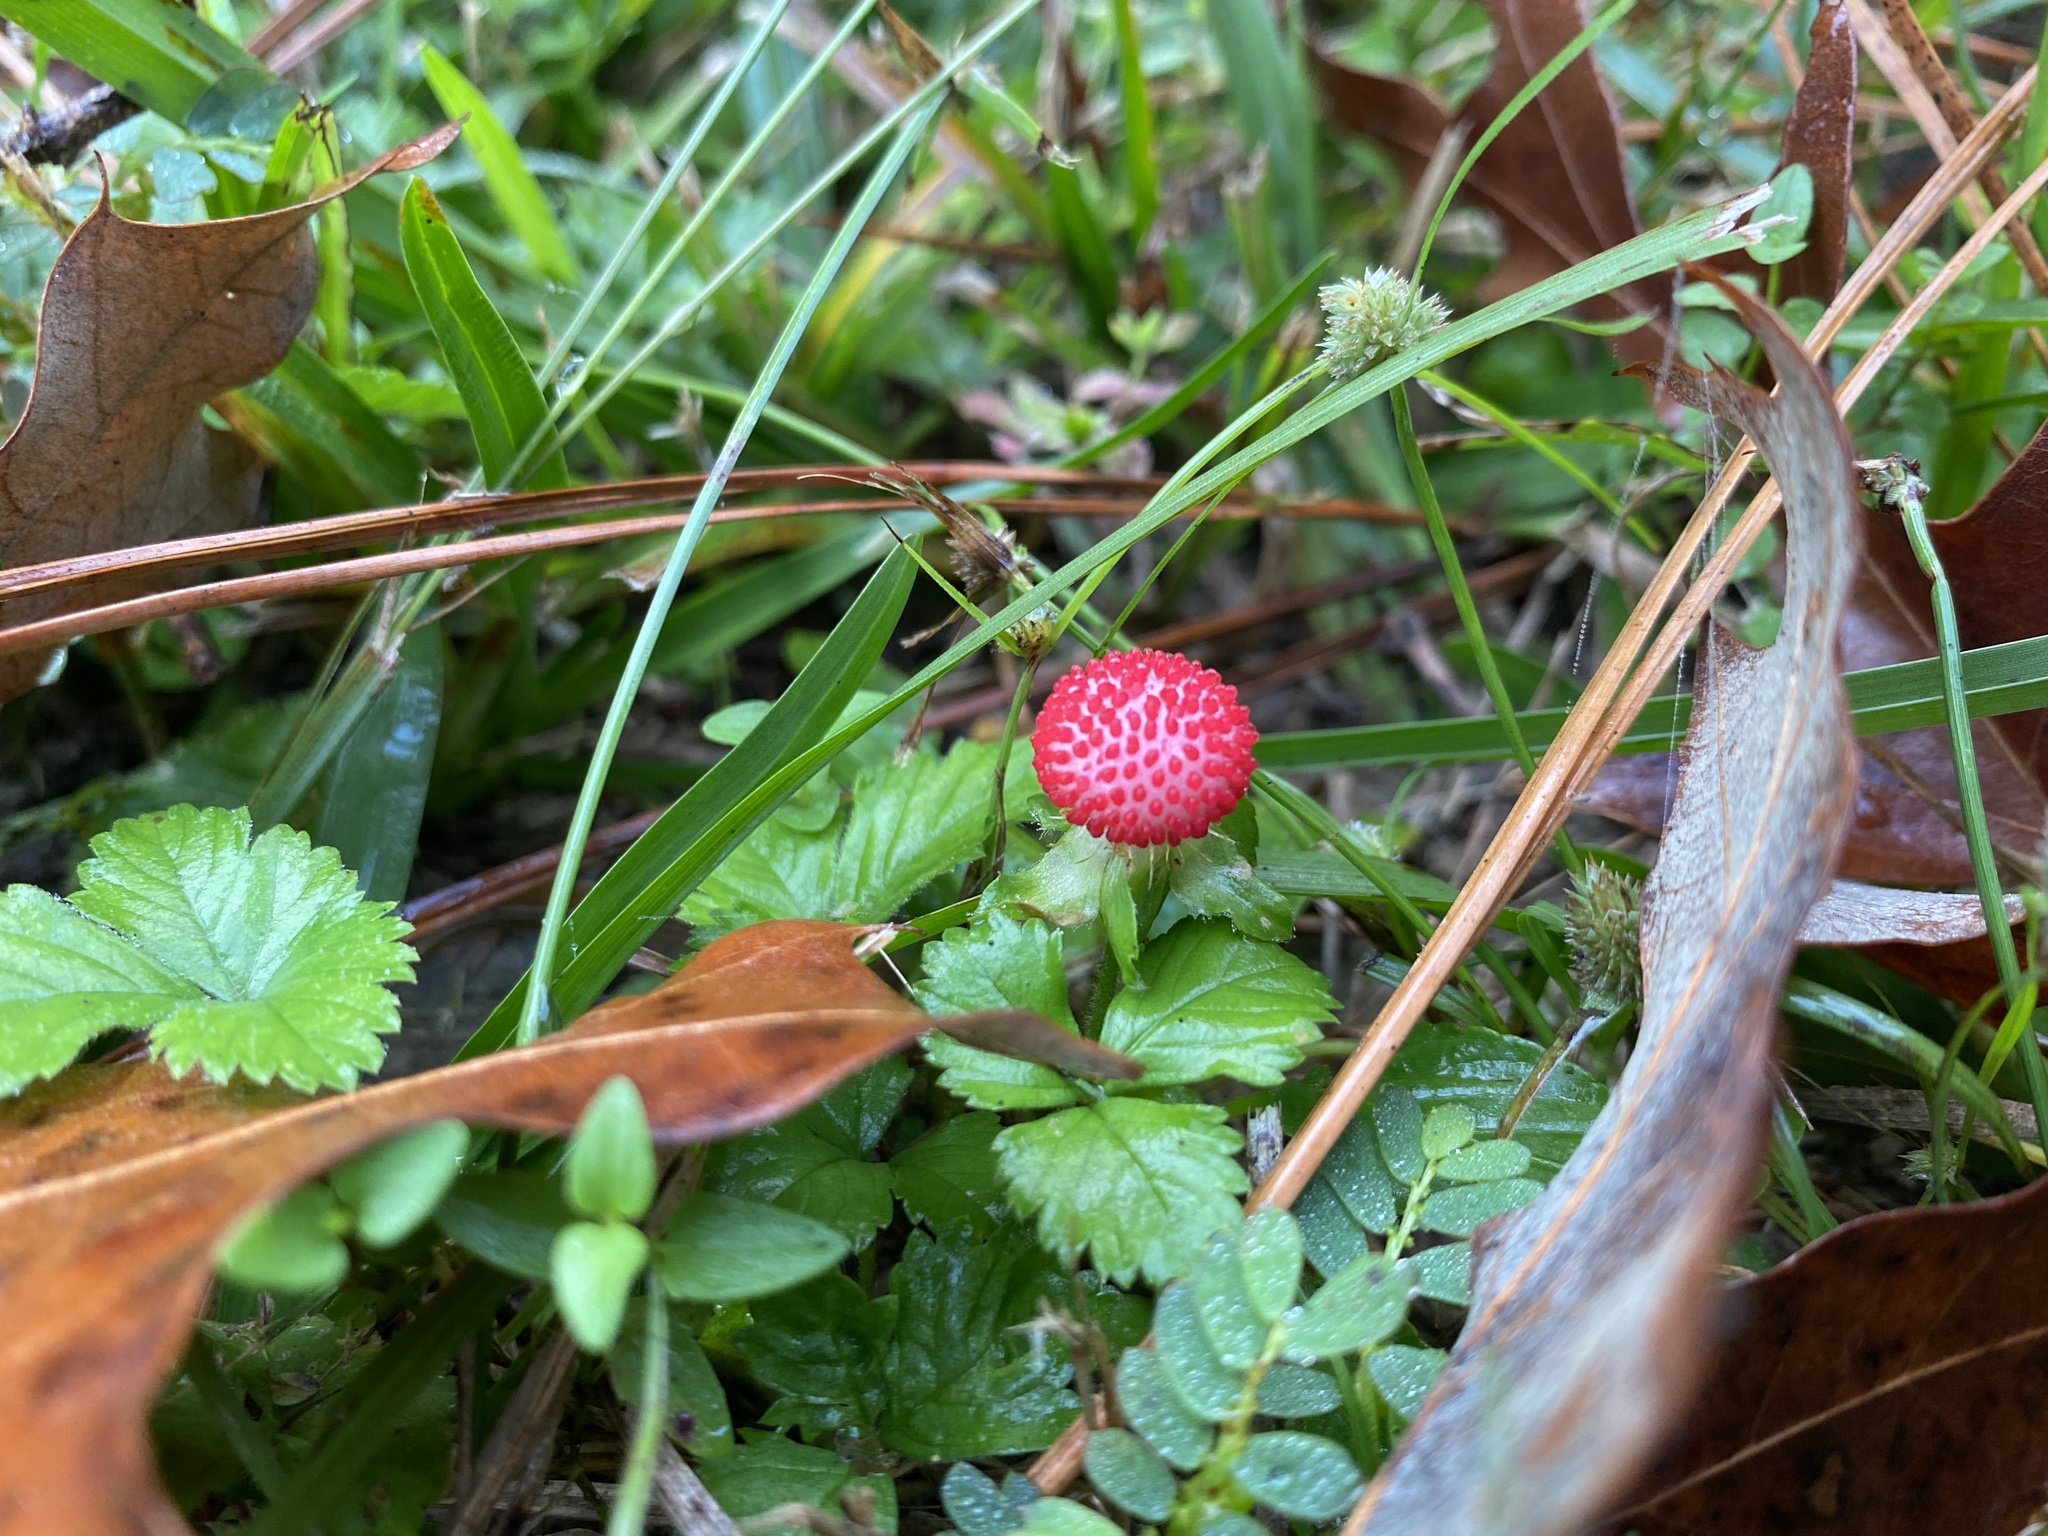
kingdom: Plantae
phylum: Tracheophyta
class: Magnoliopsida
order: Rosales
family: Rosaceae
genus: Potentilla
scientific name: Potentilla indica
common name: Yellow-flowered strawberry
